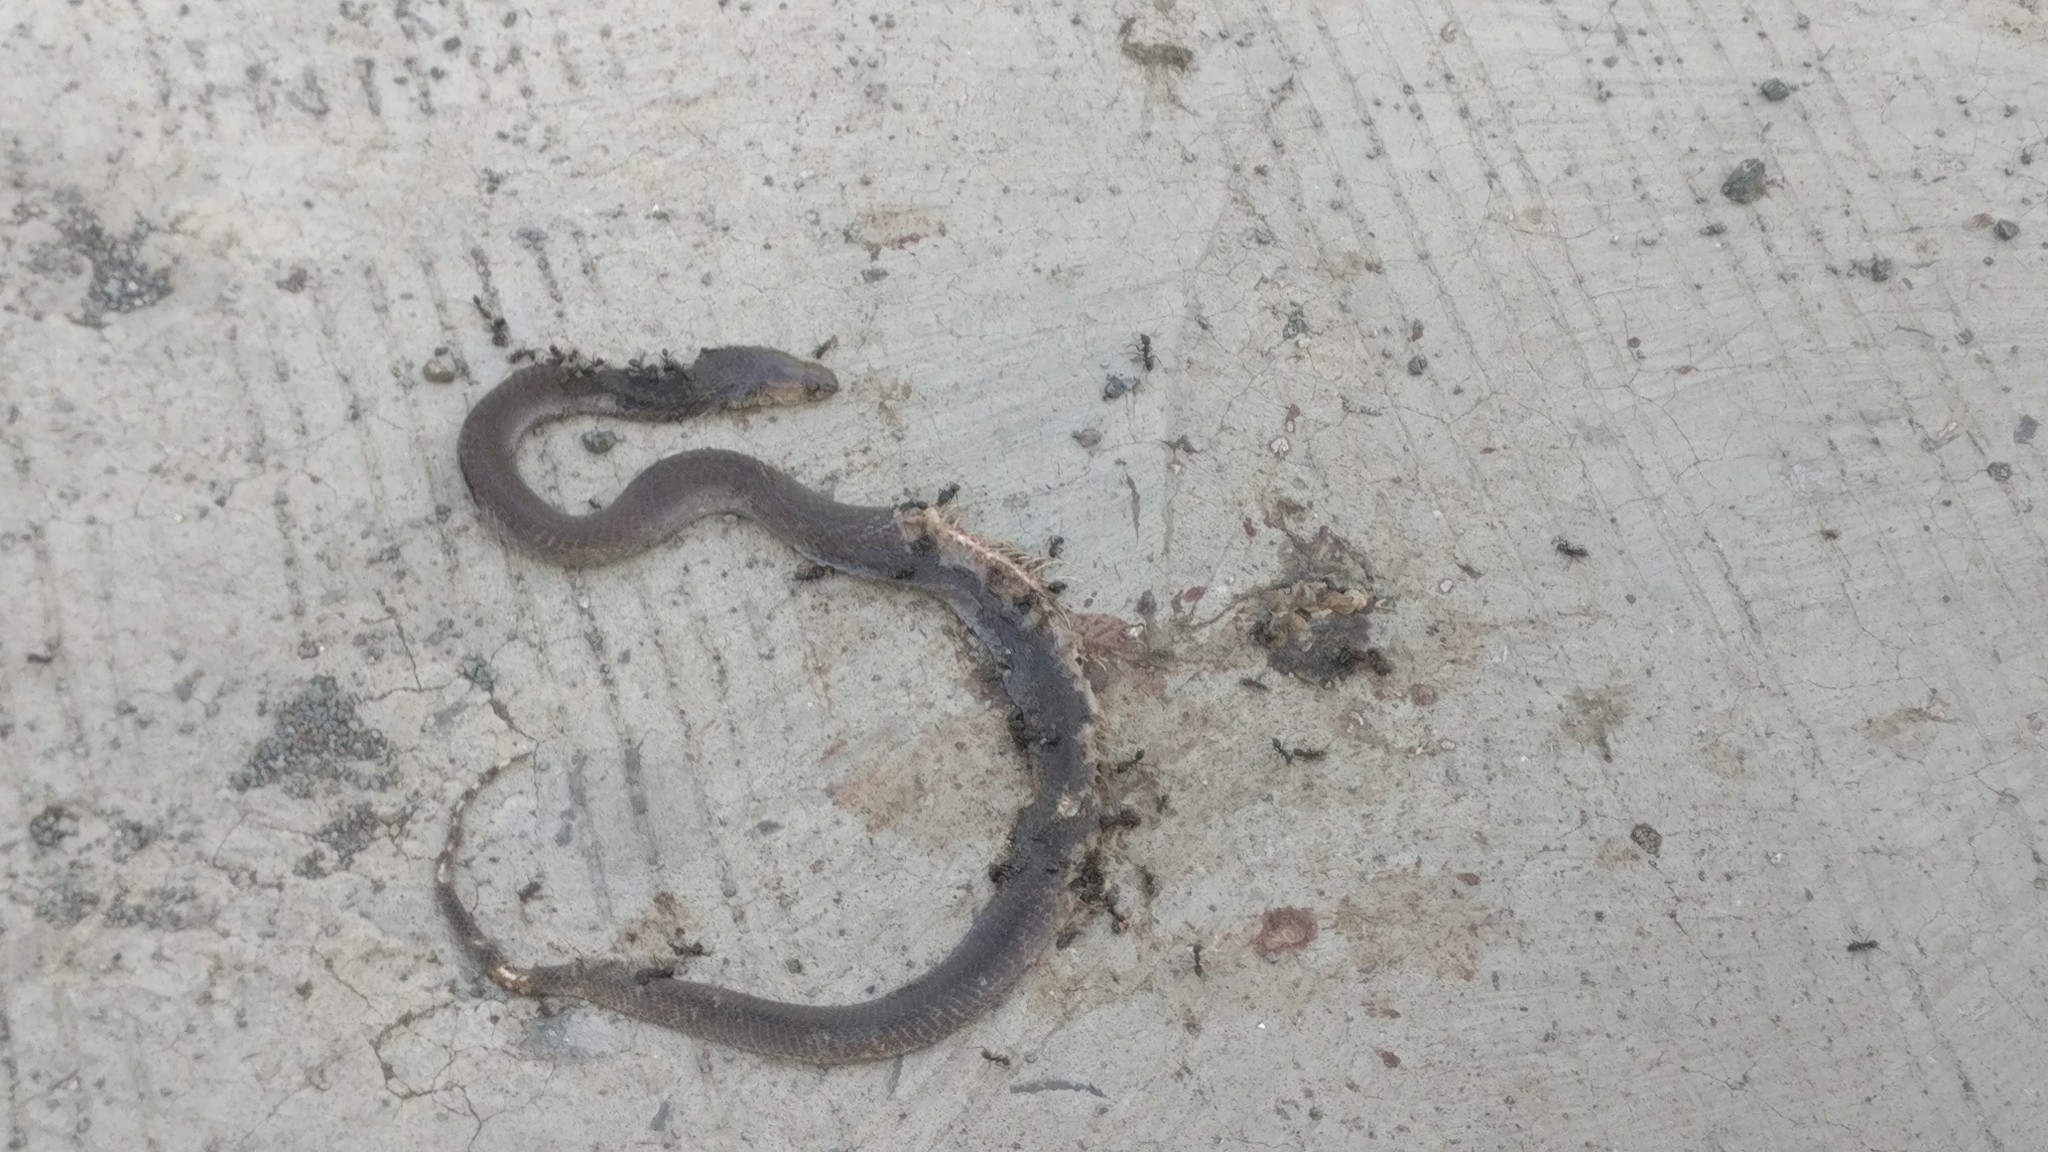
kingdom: Animalia
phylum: Chordata
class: Squamata
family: Elapidae
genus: Naja
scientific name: Naja naja
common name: Indian cobra
